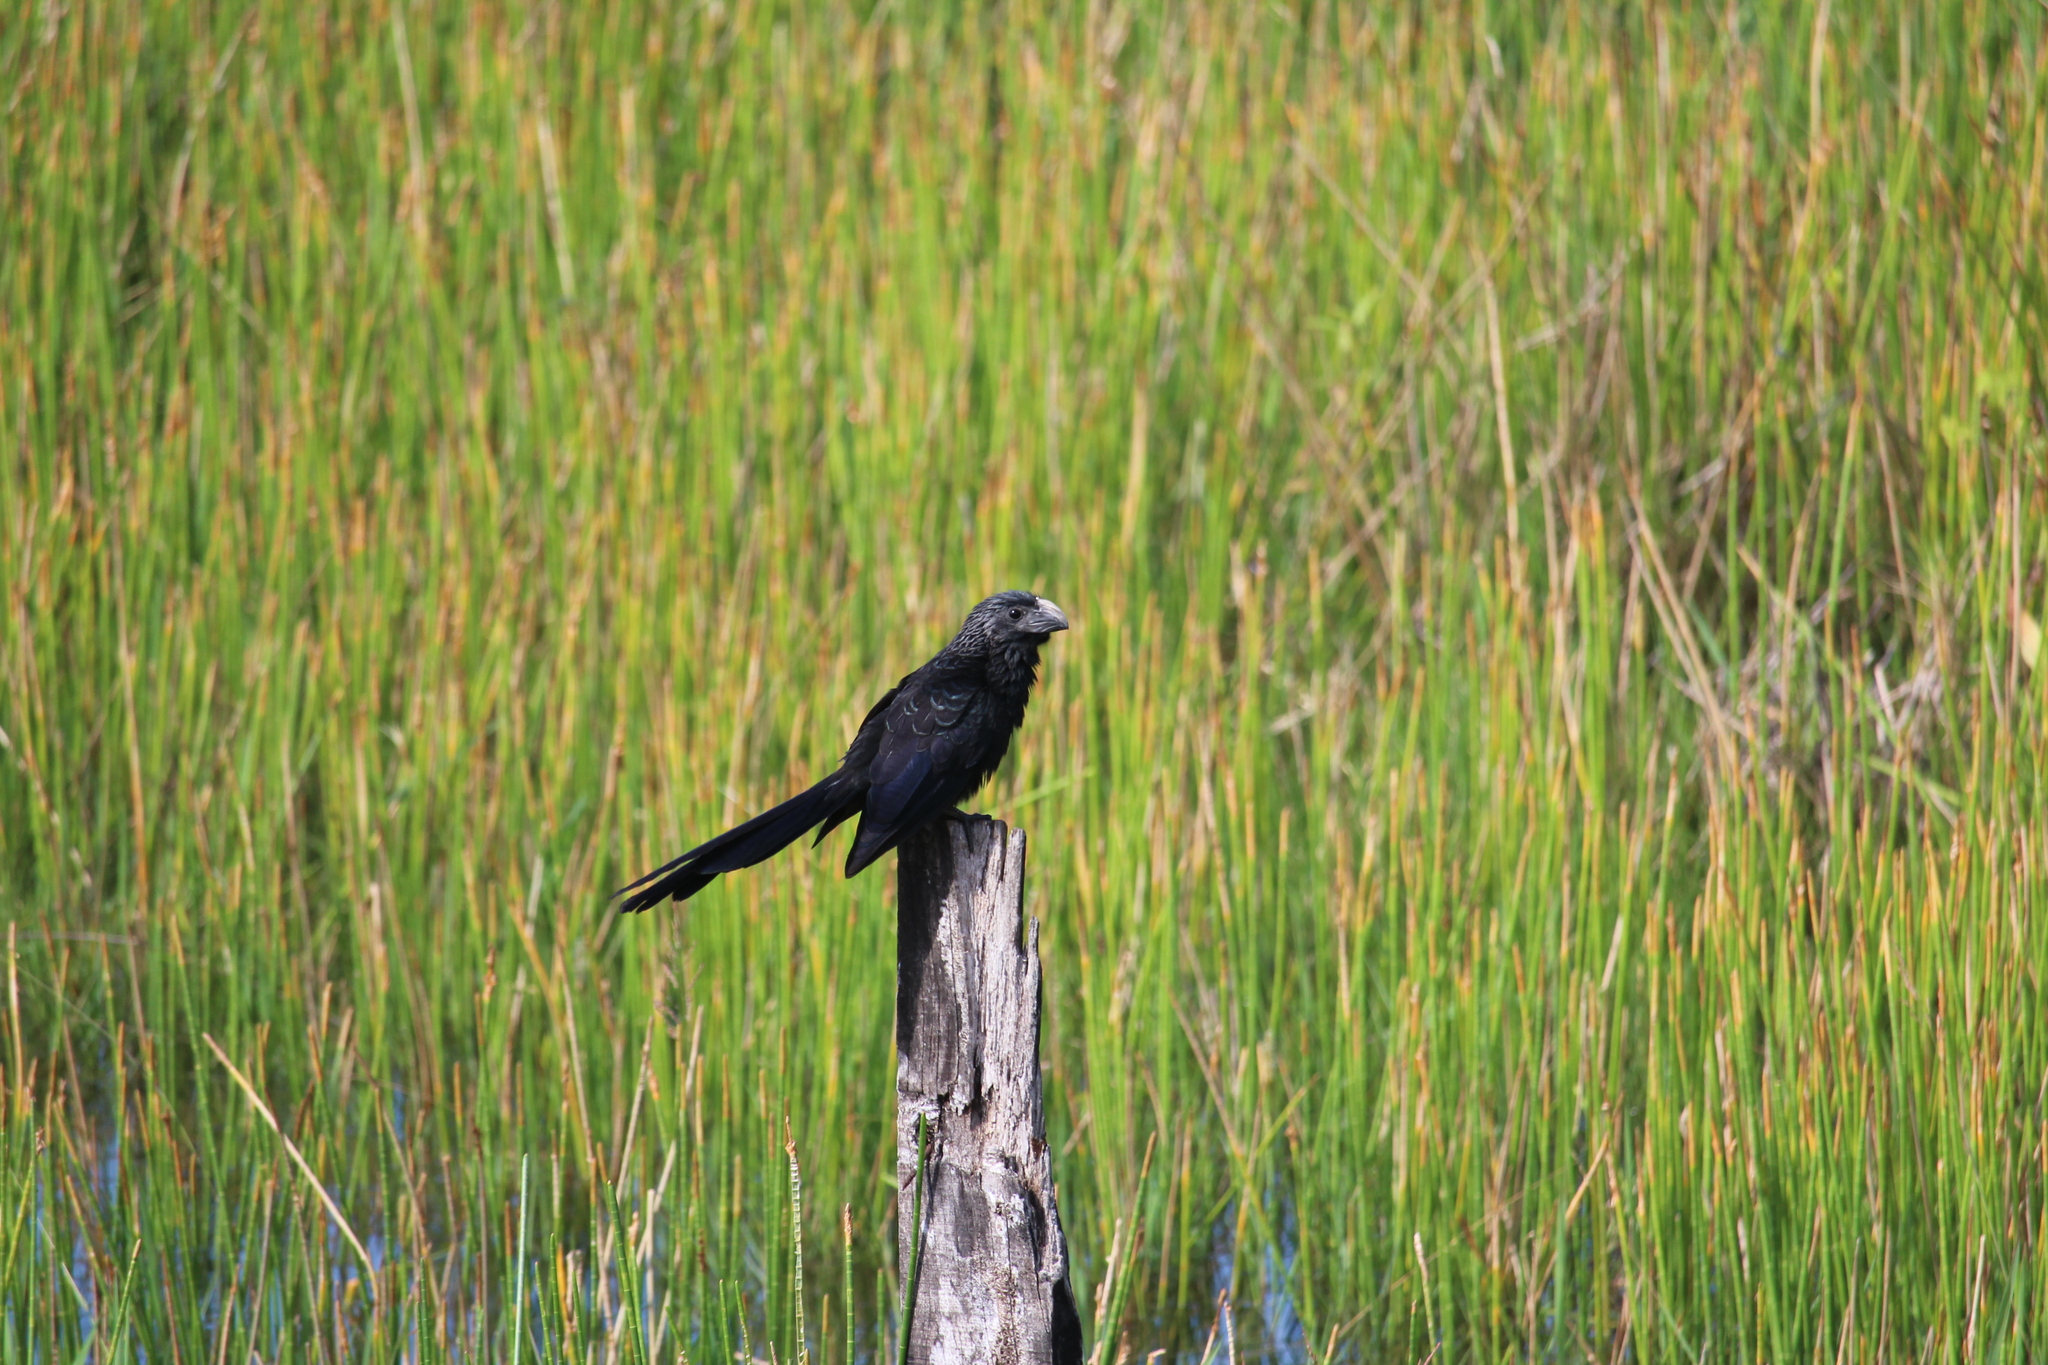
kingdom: Animalia
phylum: Chordata
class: Aves
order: Cuculiformes
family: Cuculidae
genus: Crotophaga
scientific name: Crotophaga sulcirostris
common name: Groove-billed ani
